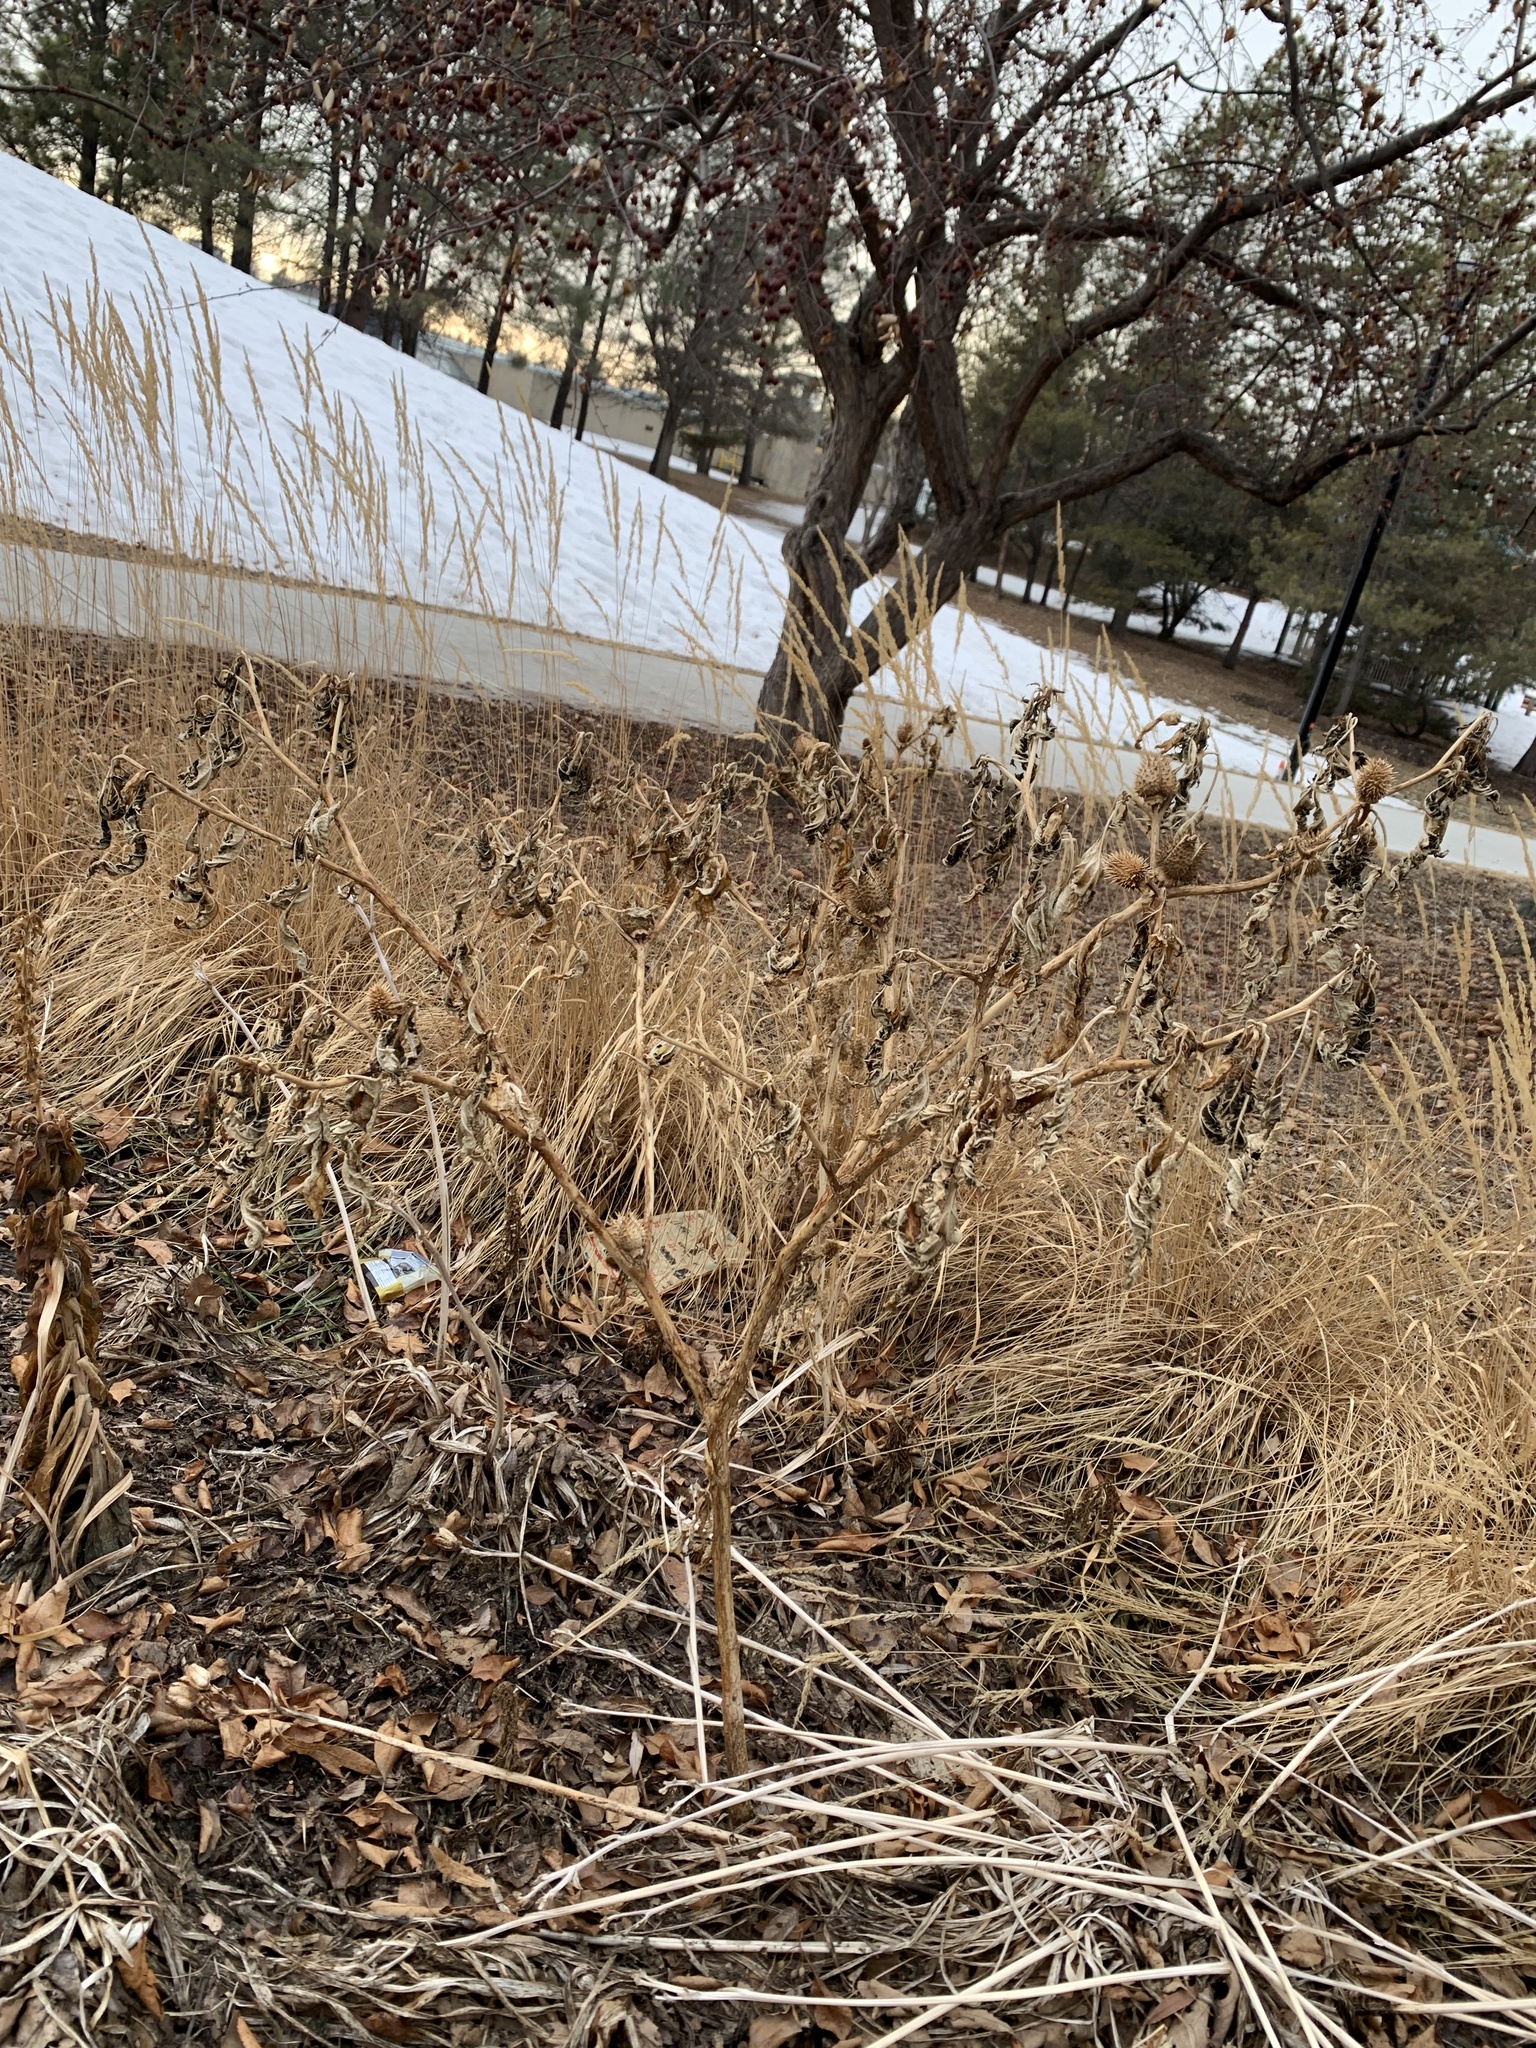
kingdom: Plantae
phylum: Tracheophyta
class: Magnoliopsida
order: Solanales
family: Solanaceae
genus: Datura
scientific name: Datura stramonium
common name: Thorn-apple
